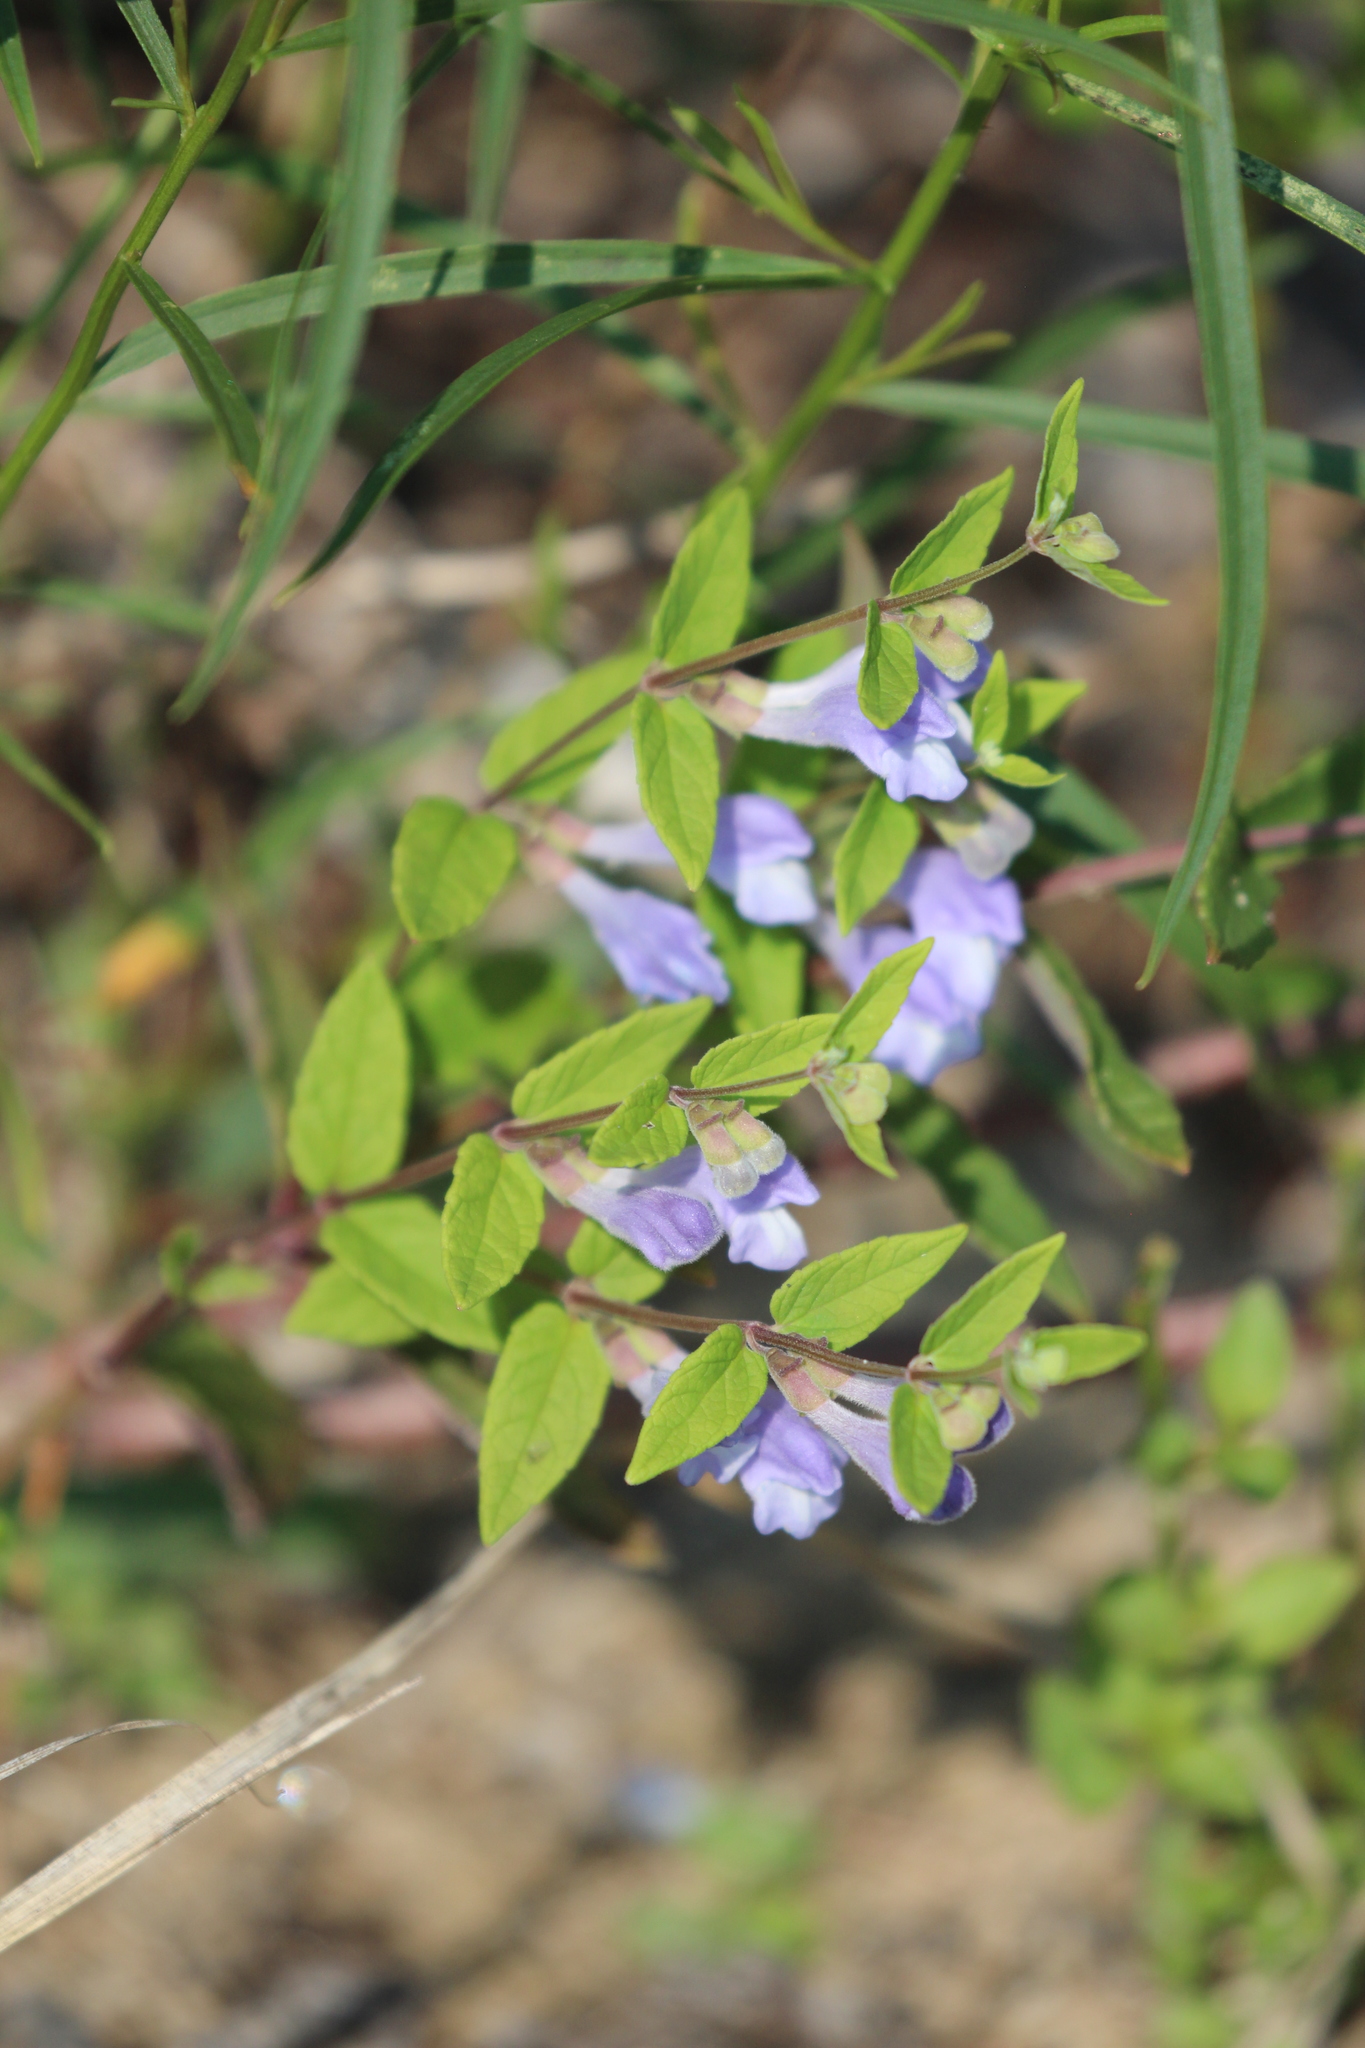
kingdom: Plantae
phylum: Tracheophyta
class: Magnoliopsida
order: Lamiales
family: Lamiaceae
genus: Scutellaria
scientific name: Scutellaria galericulata
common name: Skullcap
